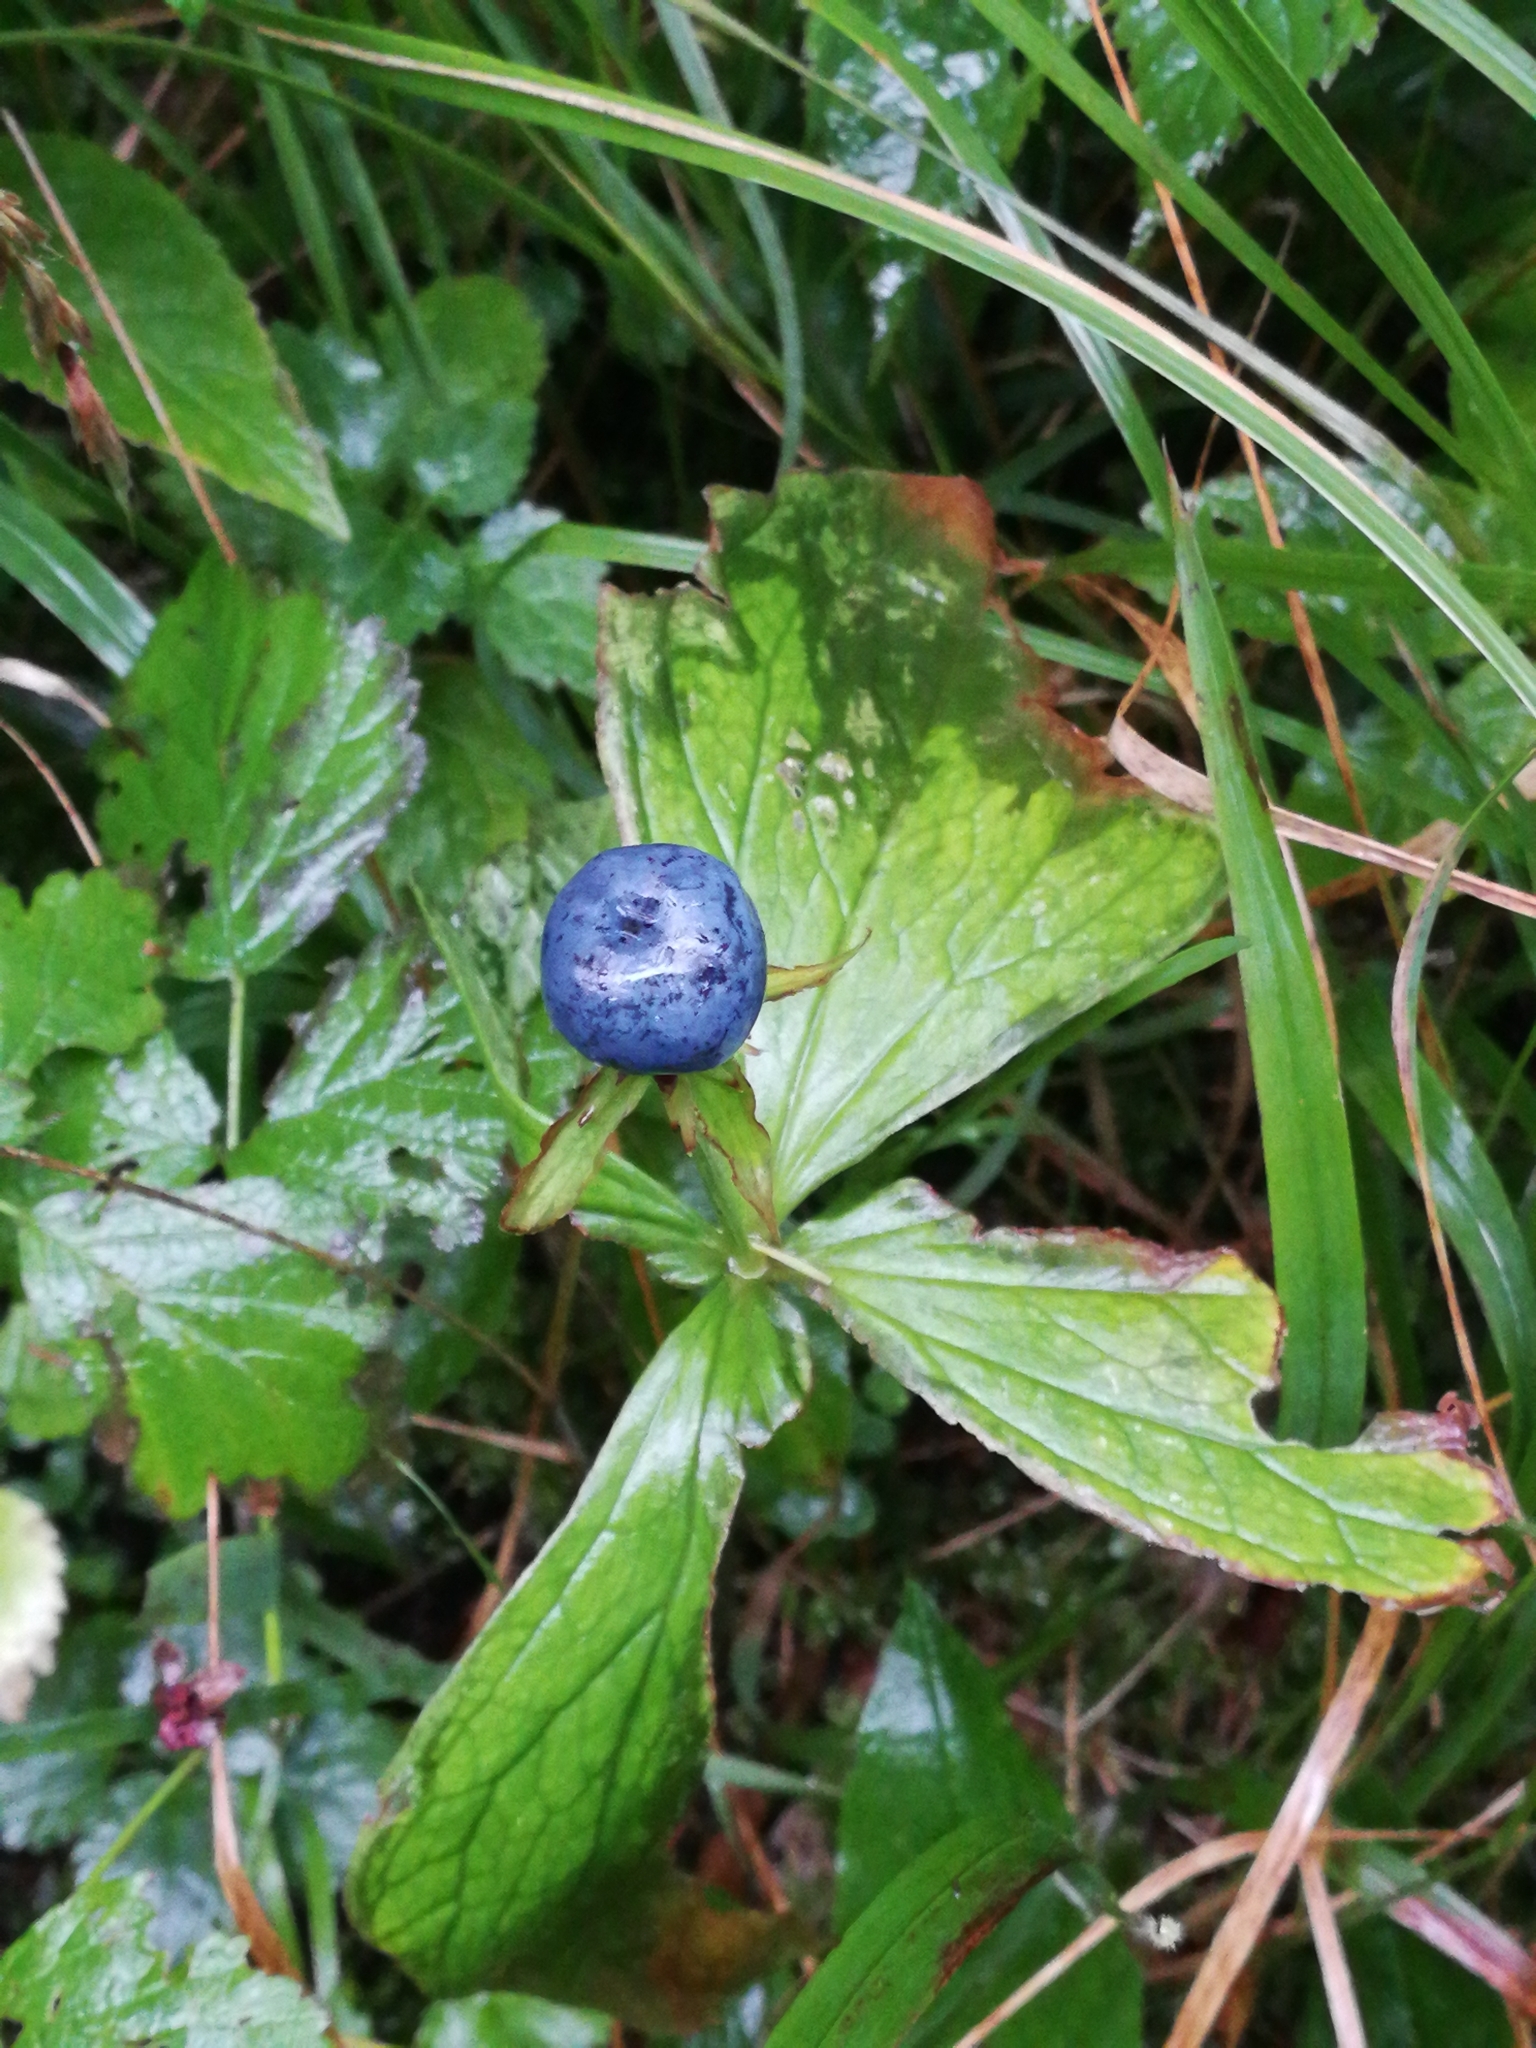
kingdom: Plantae
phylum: Tracheophyta
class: Liliopsida
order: Liliales
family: Melanthiaceae
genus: Paris
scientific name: Paris quadrifolia
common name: Herb-paris
